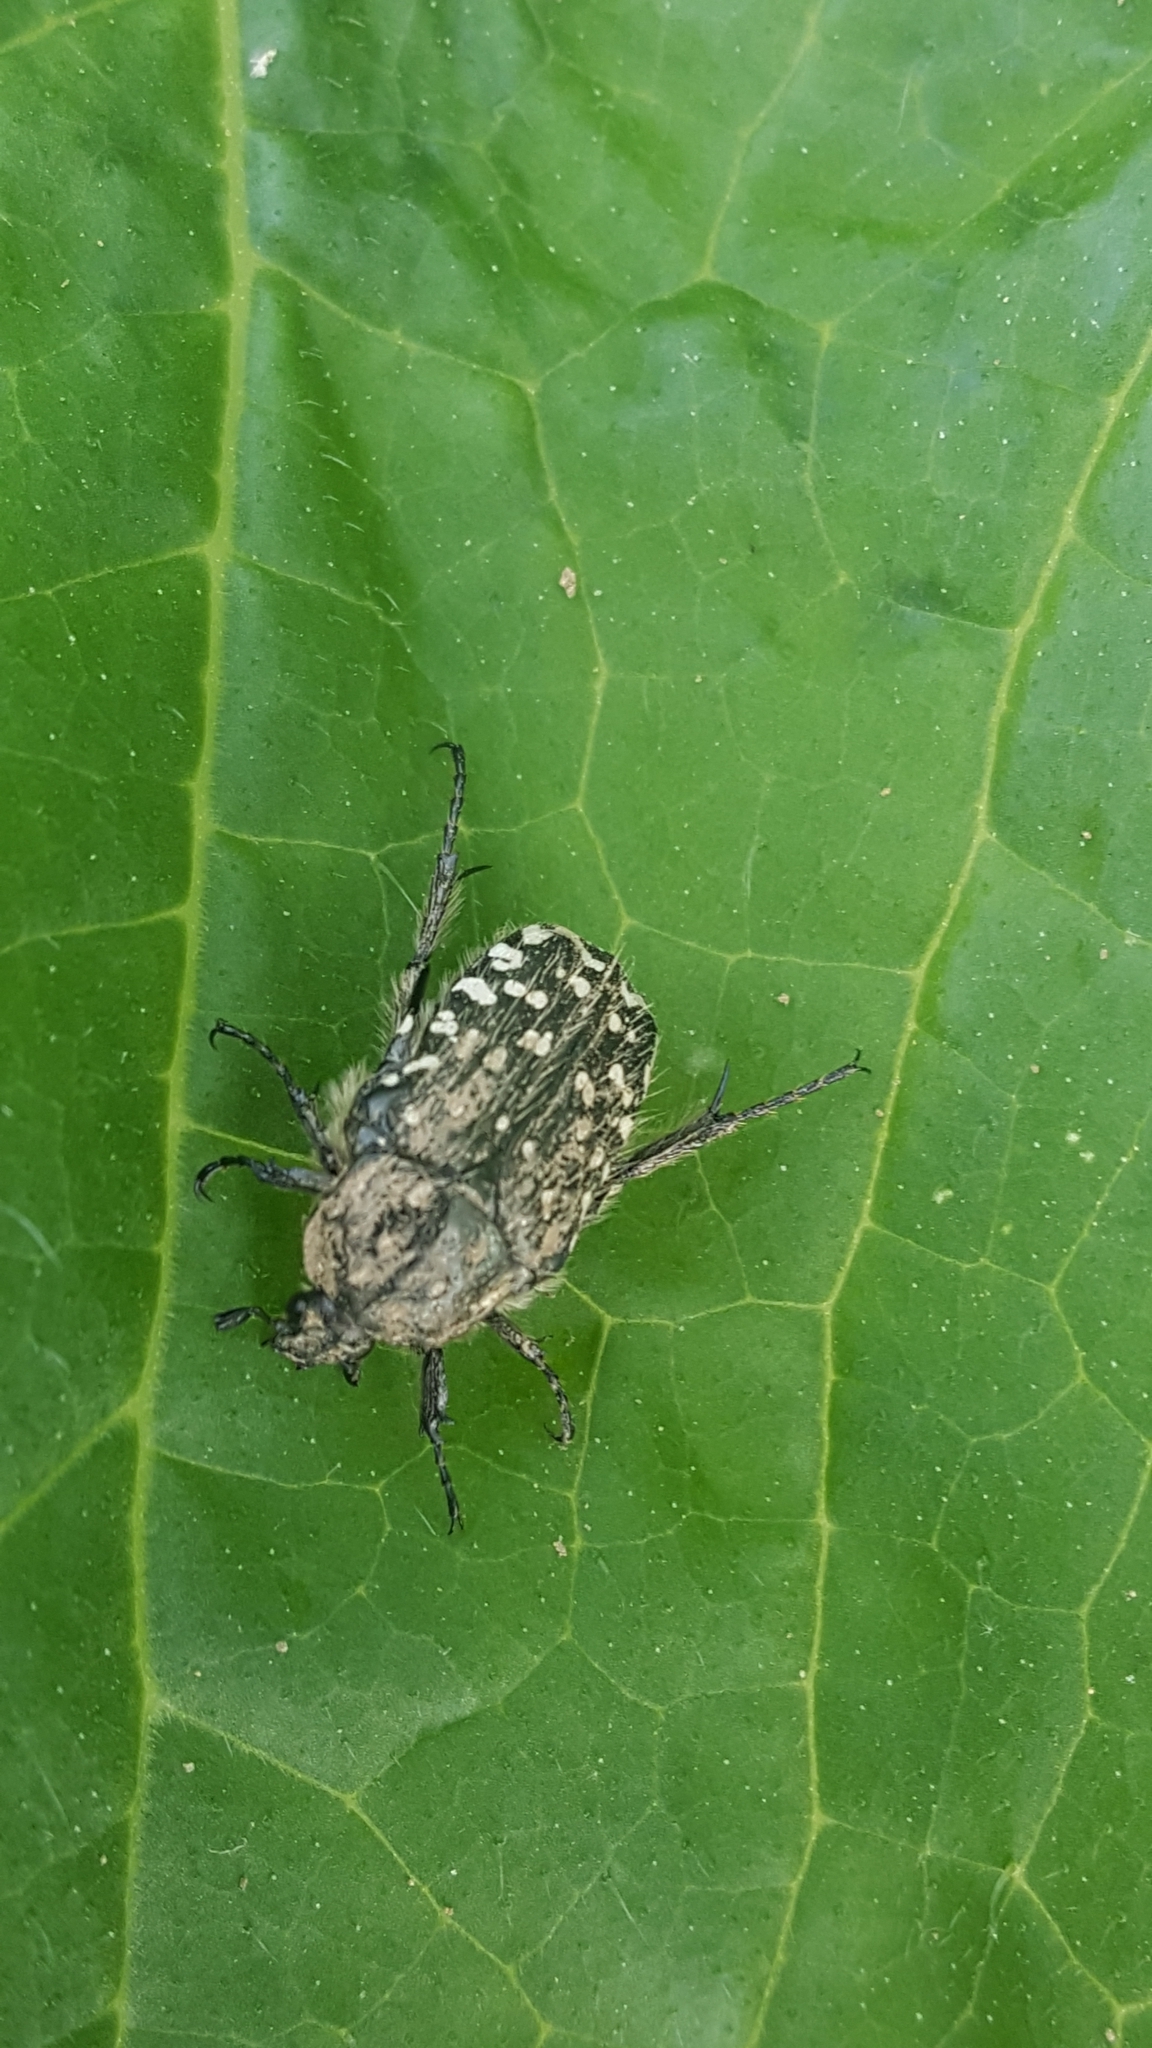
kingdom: Animalia
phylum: Arthropoda
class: Insecta
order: Coleoptera
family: Scarabaeidae
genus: Oxythyrea
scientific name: Oxythyrea funesta
